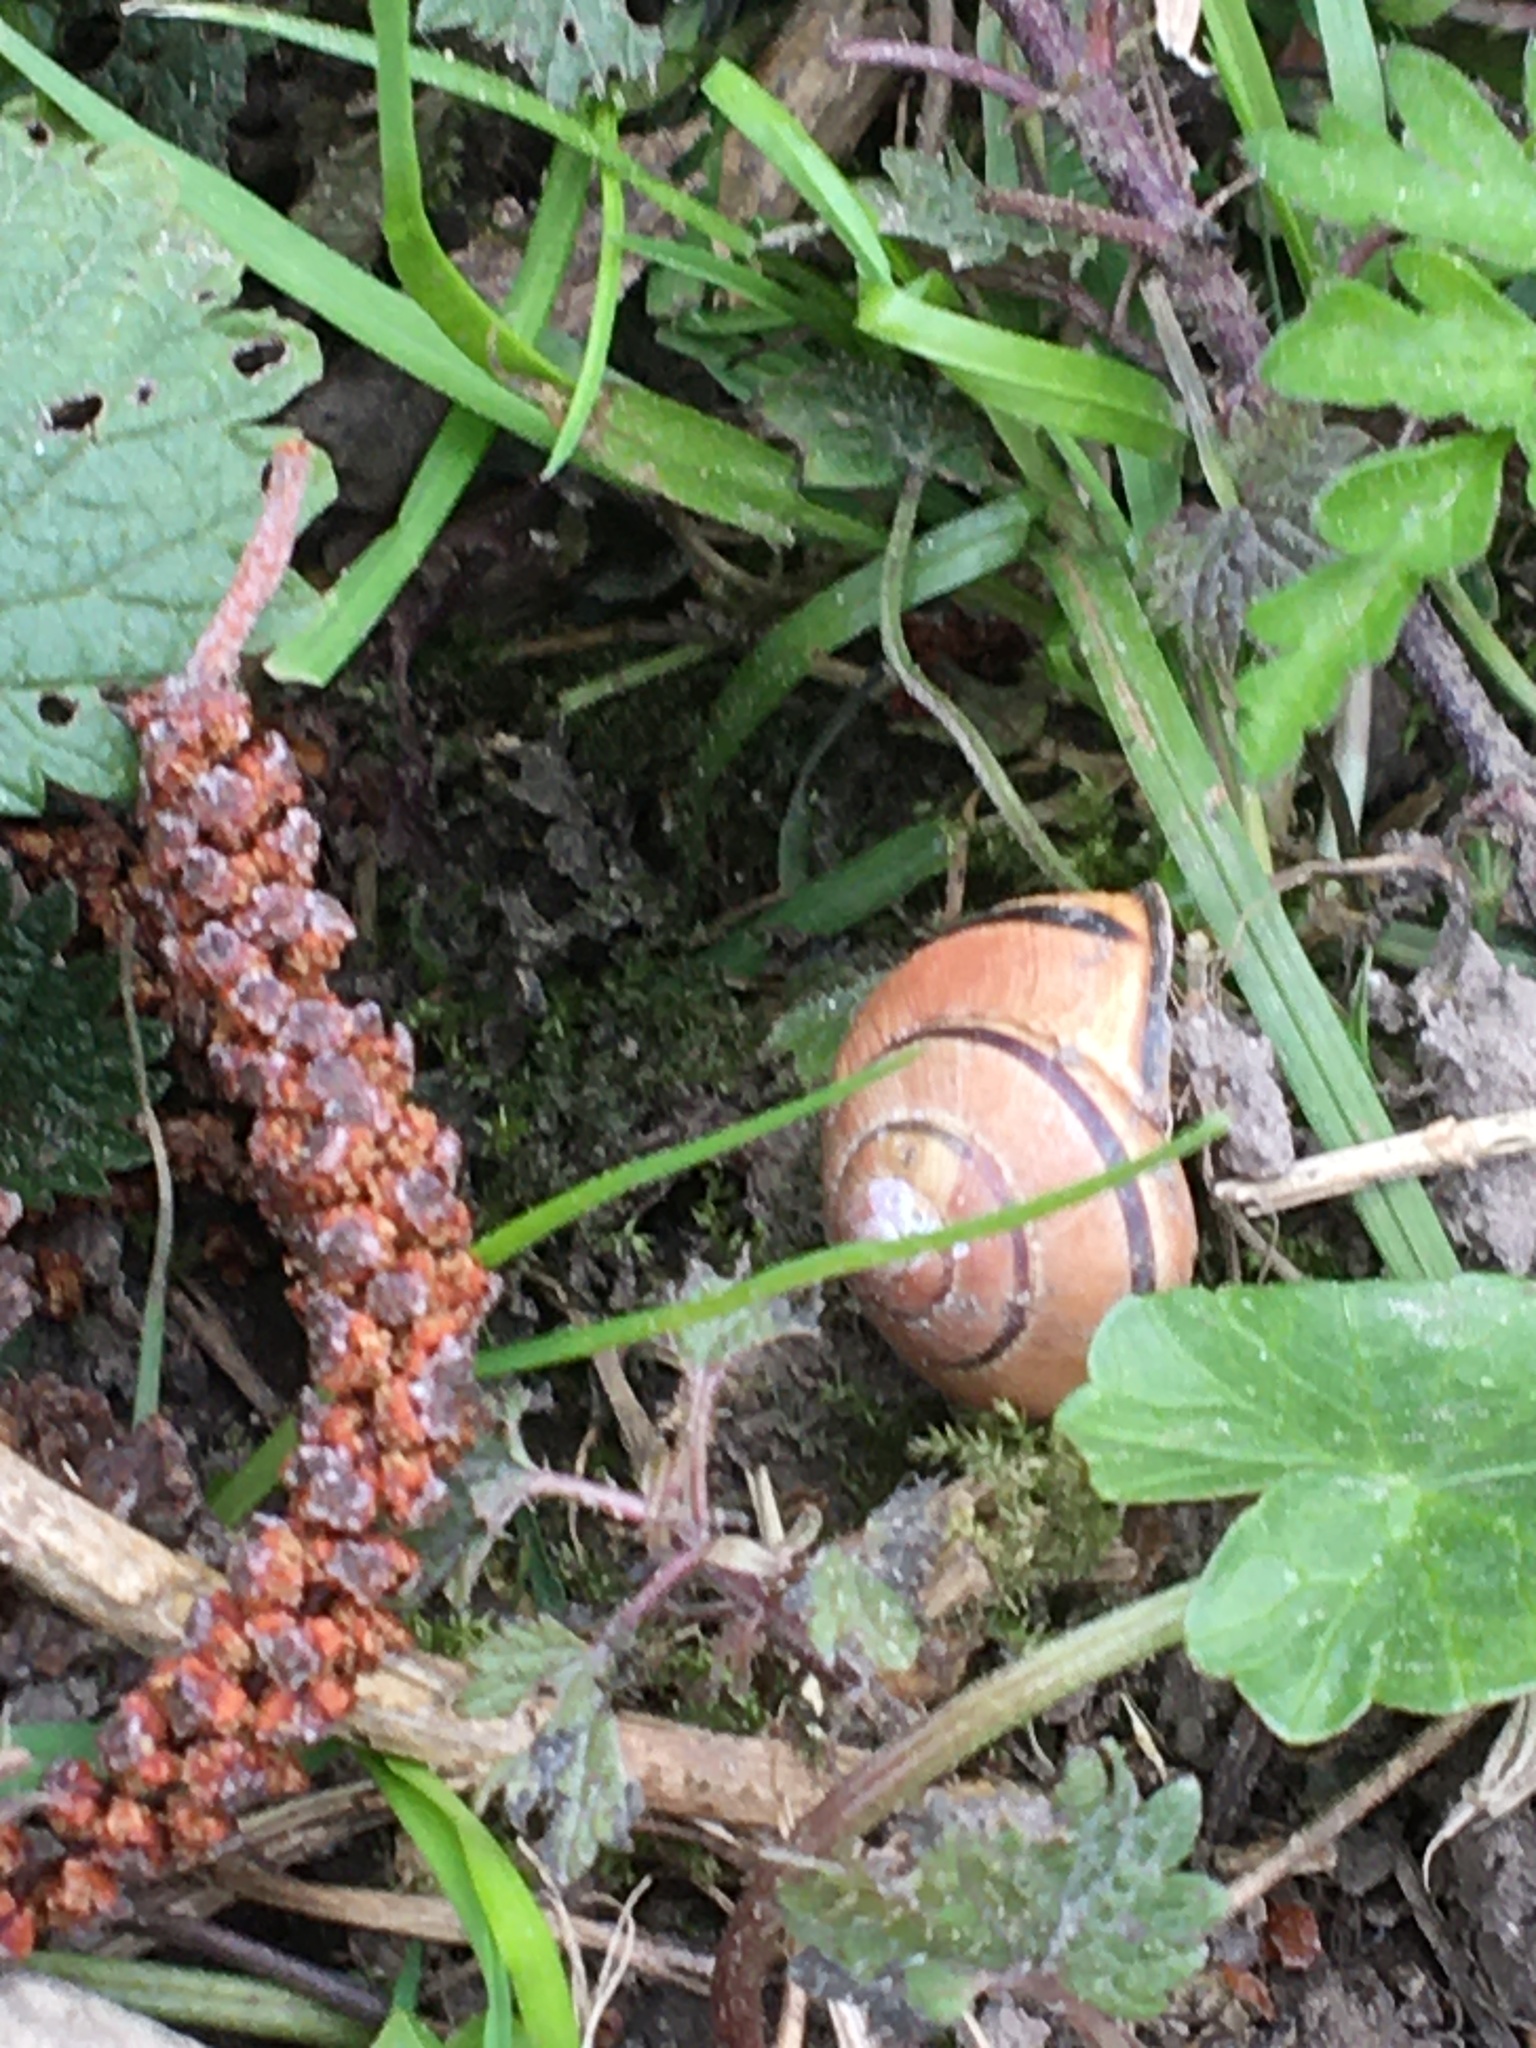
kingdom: Animalia
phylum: Mollusca
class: Gastropoda
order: Stylommatophora
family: Helicidae
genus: Cepaea
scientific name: Cepaea nemoralis
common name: Grovesnail
